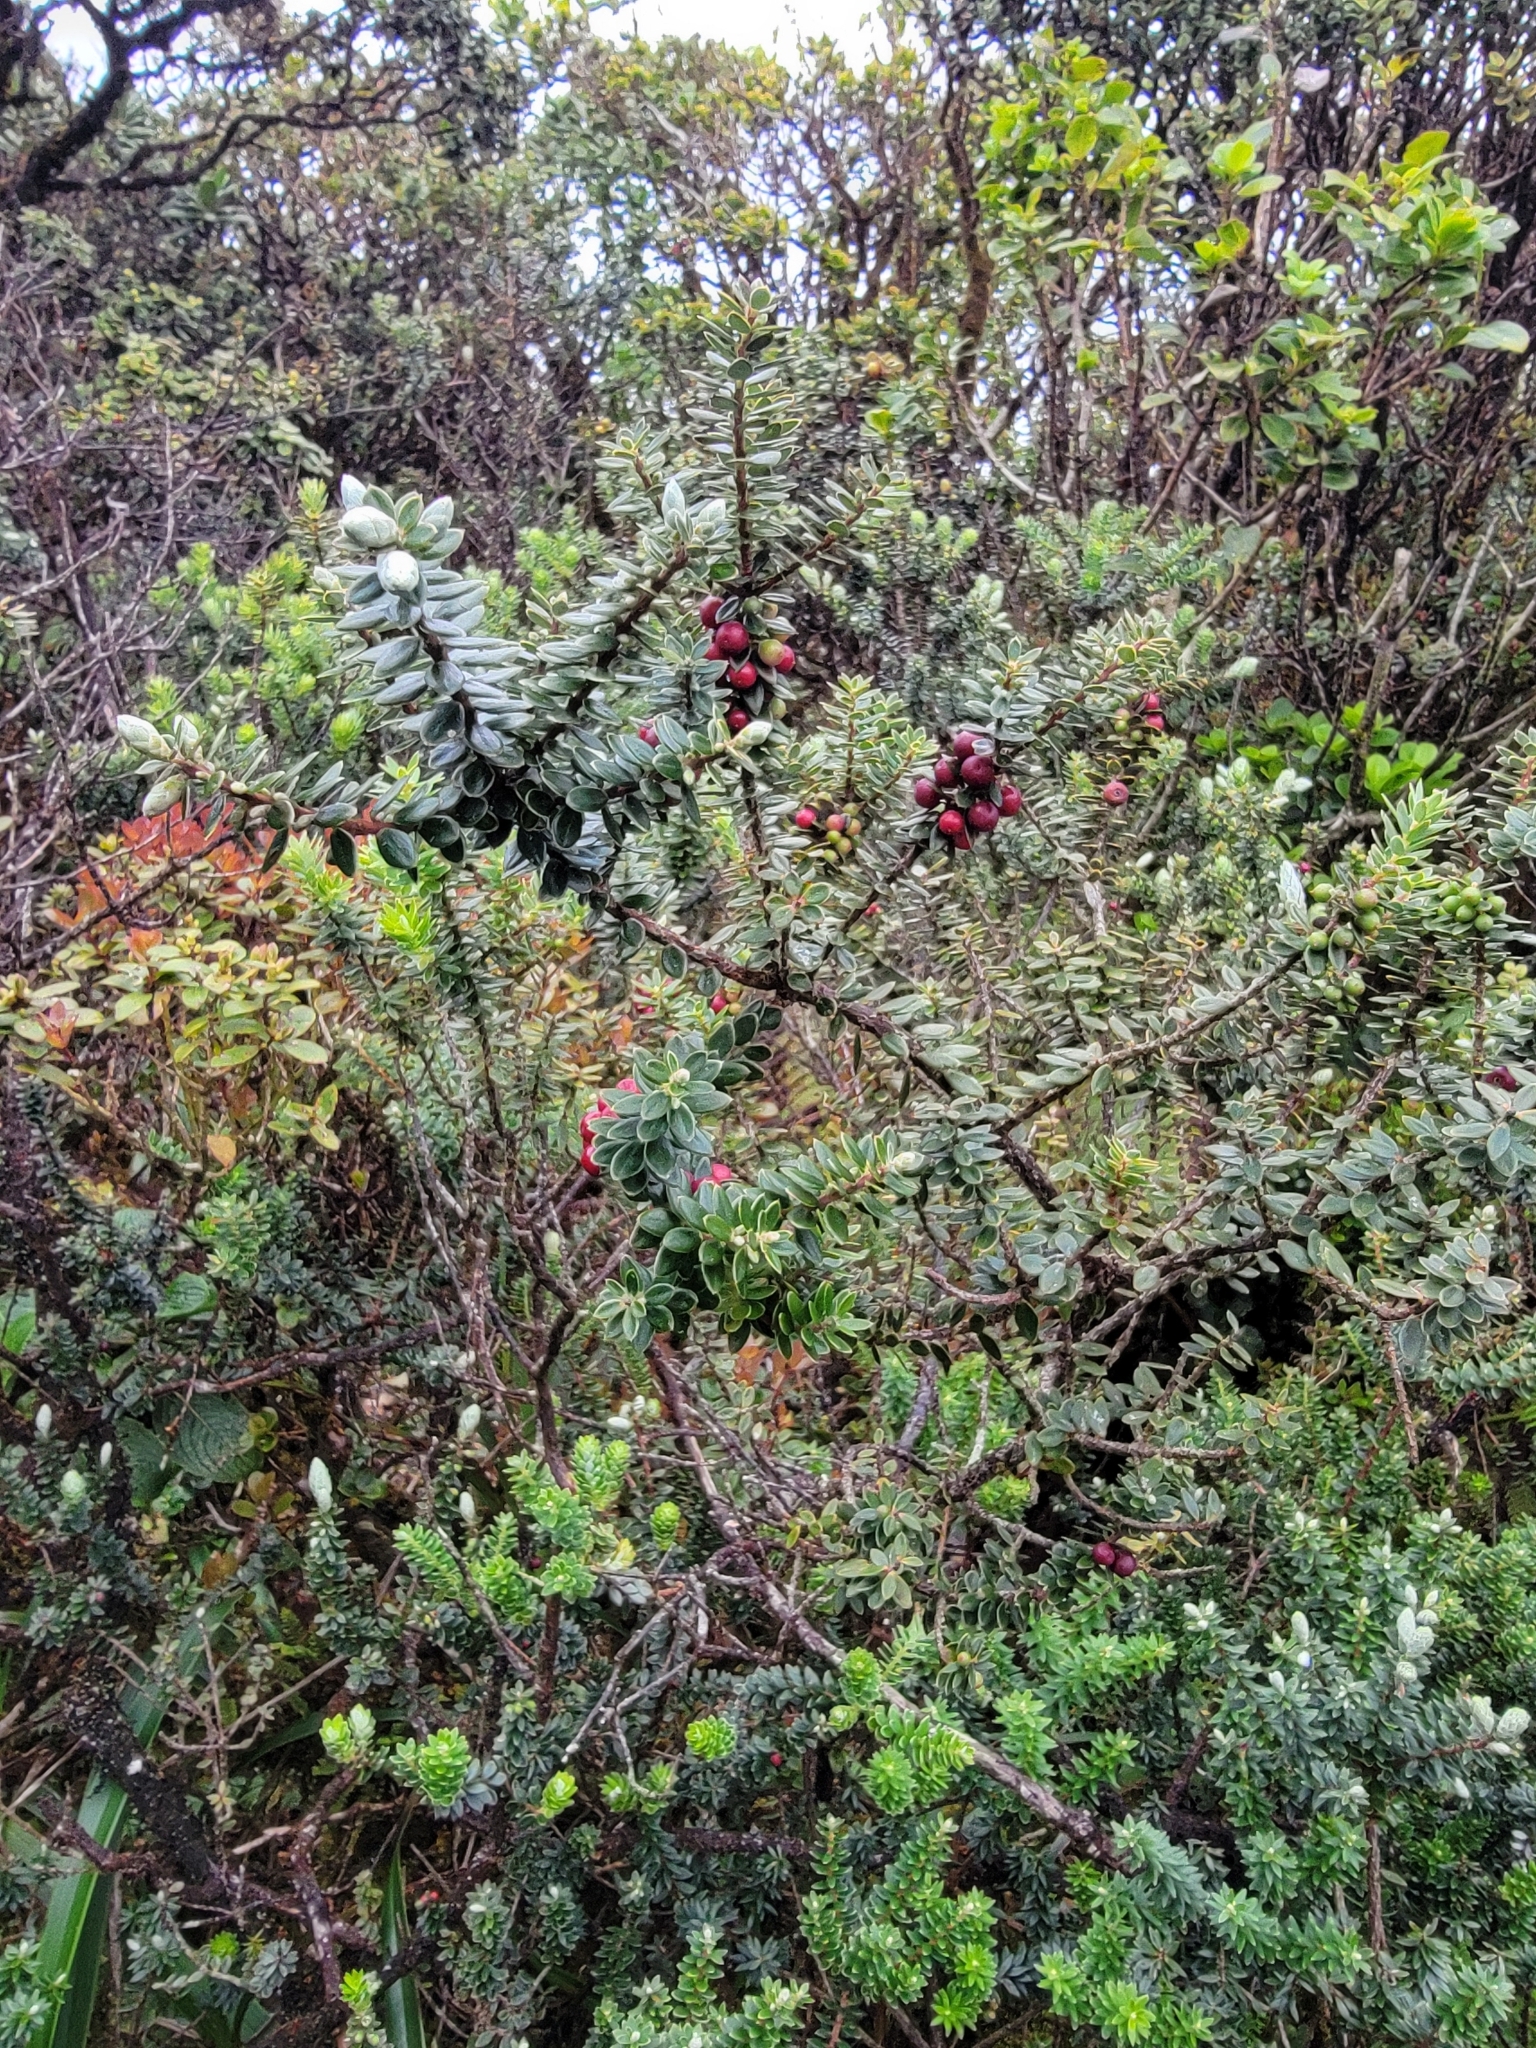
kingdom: Plantae
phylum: Tracheophyta
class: Magnoliopsida
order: Ericales
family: Ericaceae
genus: Leptecophylla
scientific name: Leptecophylla tameiameiae
